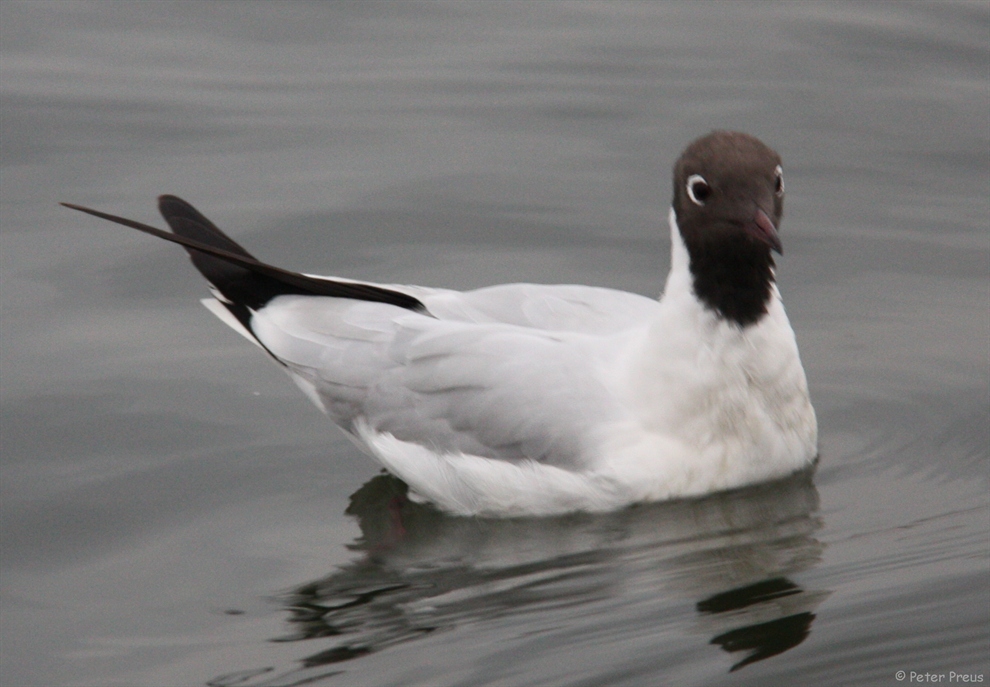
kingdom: Animalia
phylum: Chordata
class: Aves
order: Charadriiformes
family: Laridae
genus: Chroicocephalus
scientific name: Chroicocephalus ridibundus
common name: Black-headed gull
